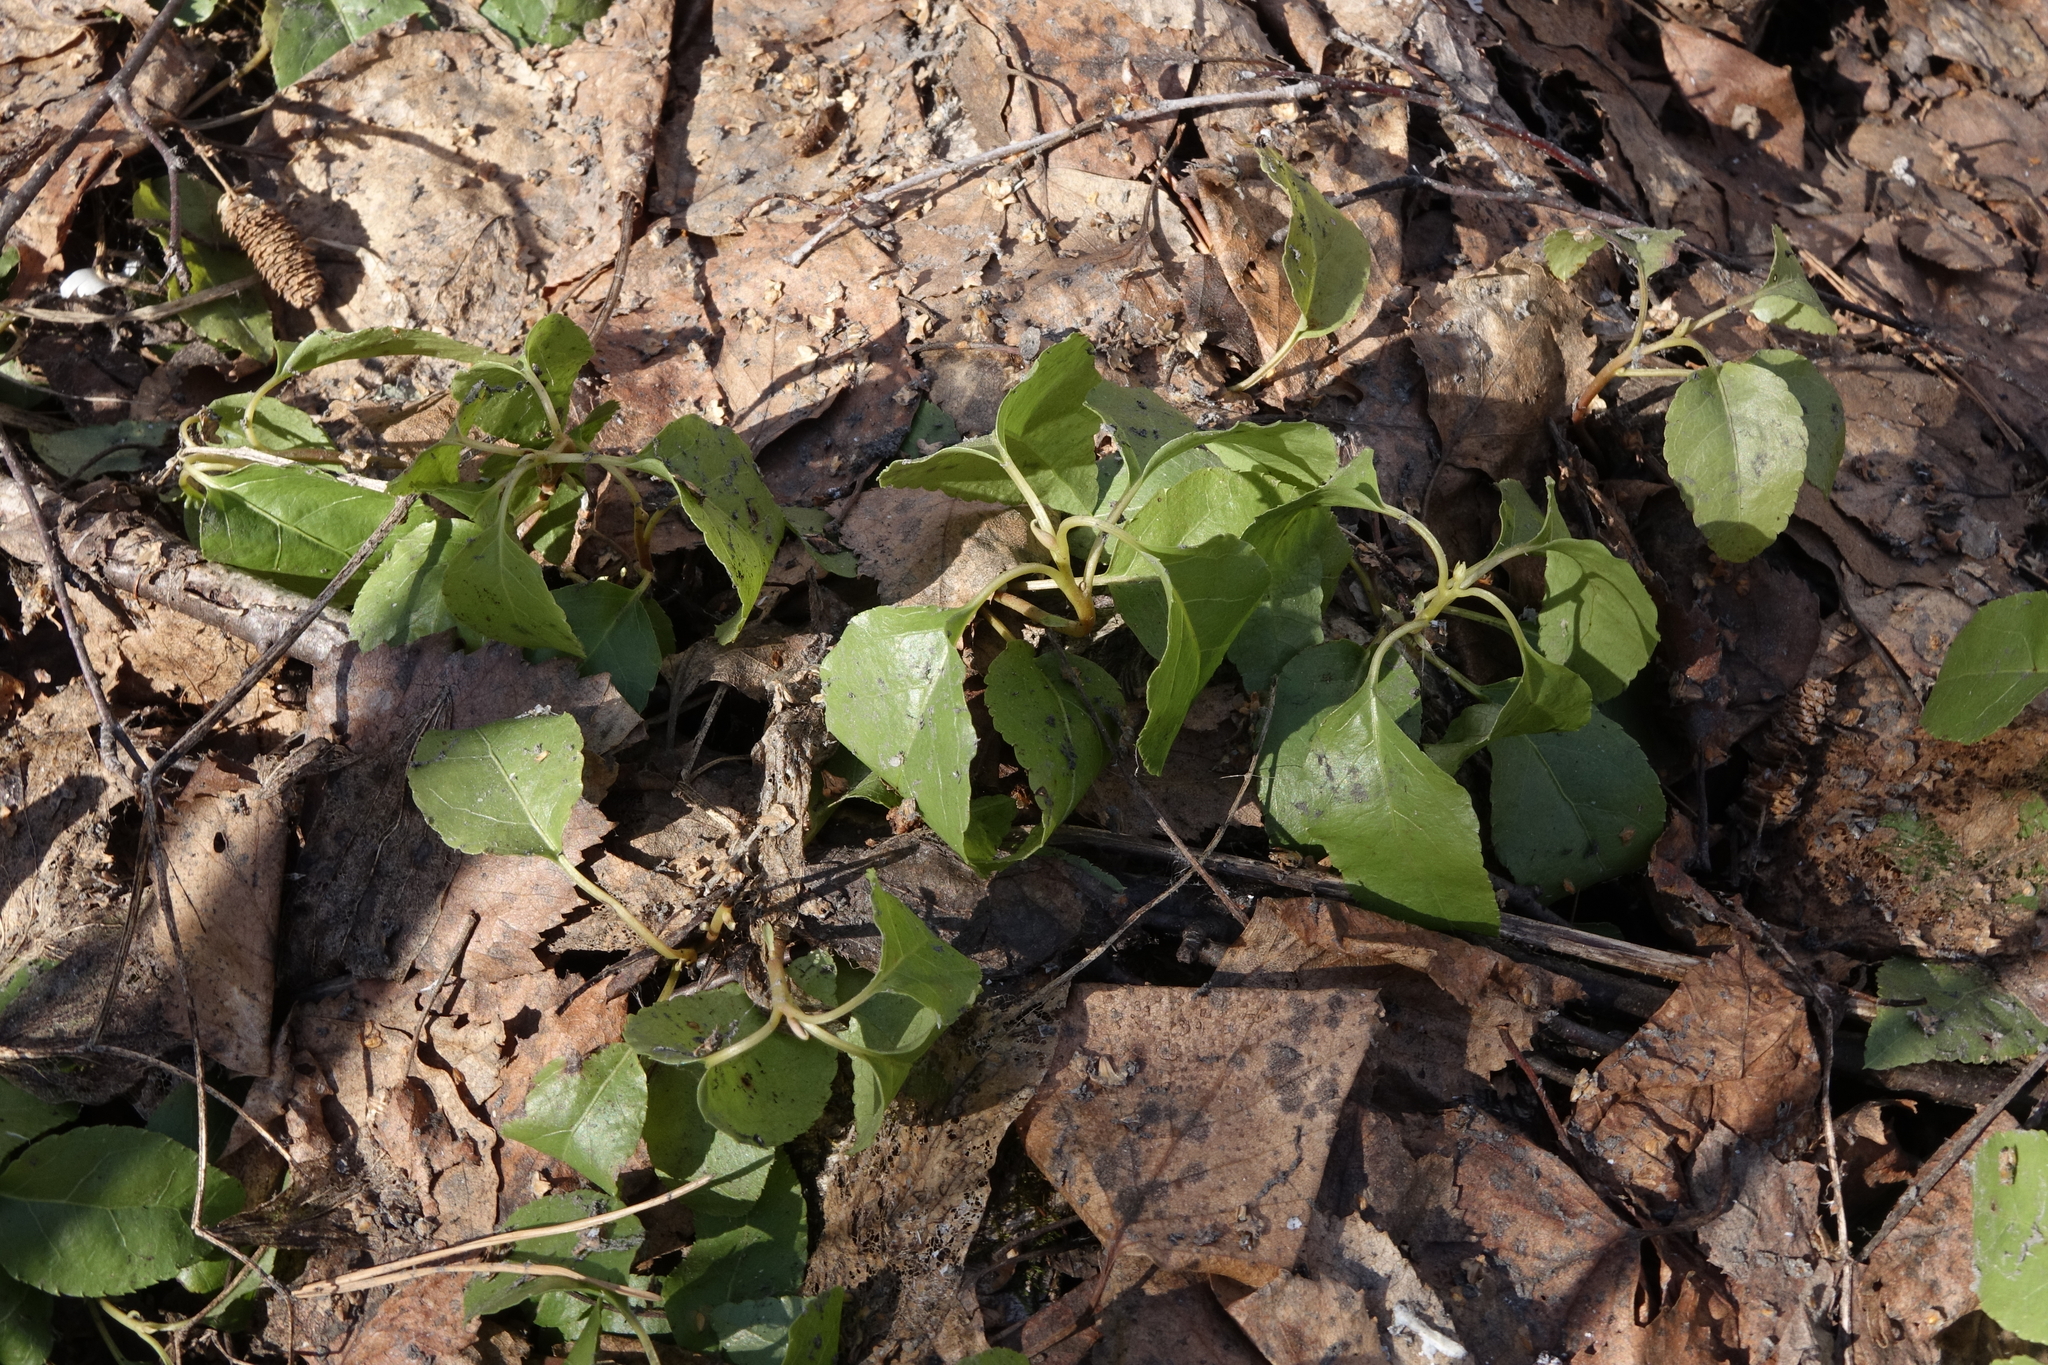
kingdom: Plantae
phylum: Tracheophyta
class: Magnoliopsida
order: Ericales
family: Ericaceae
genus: Orthilia
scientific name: Orthilia secunda
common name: One-sided orthilia
